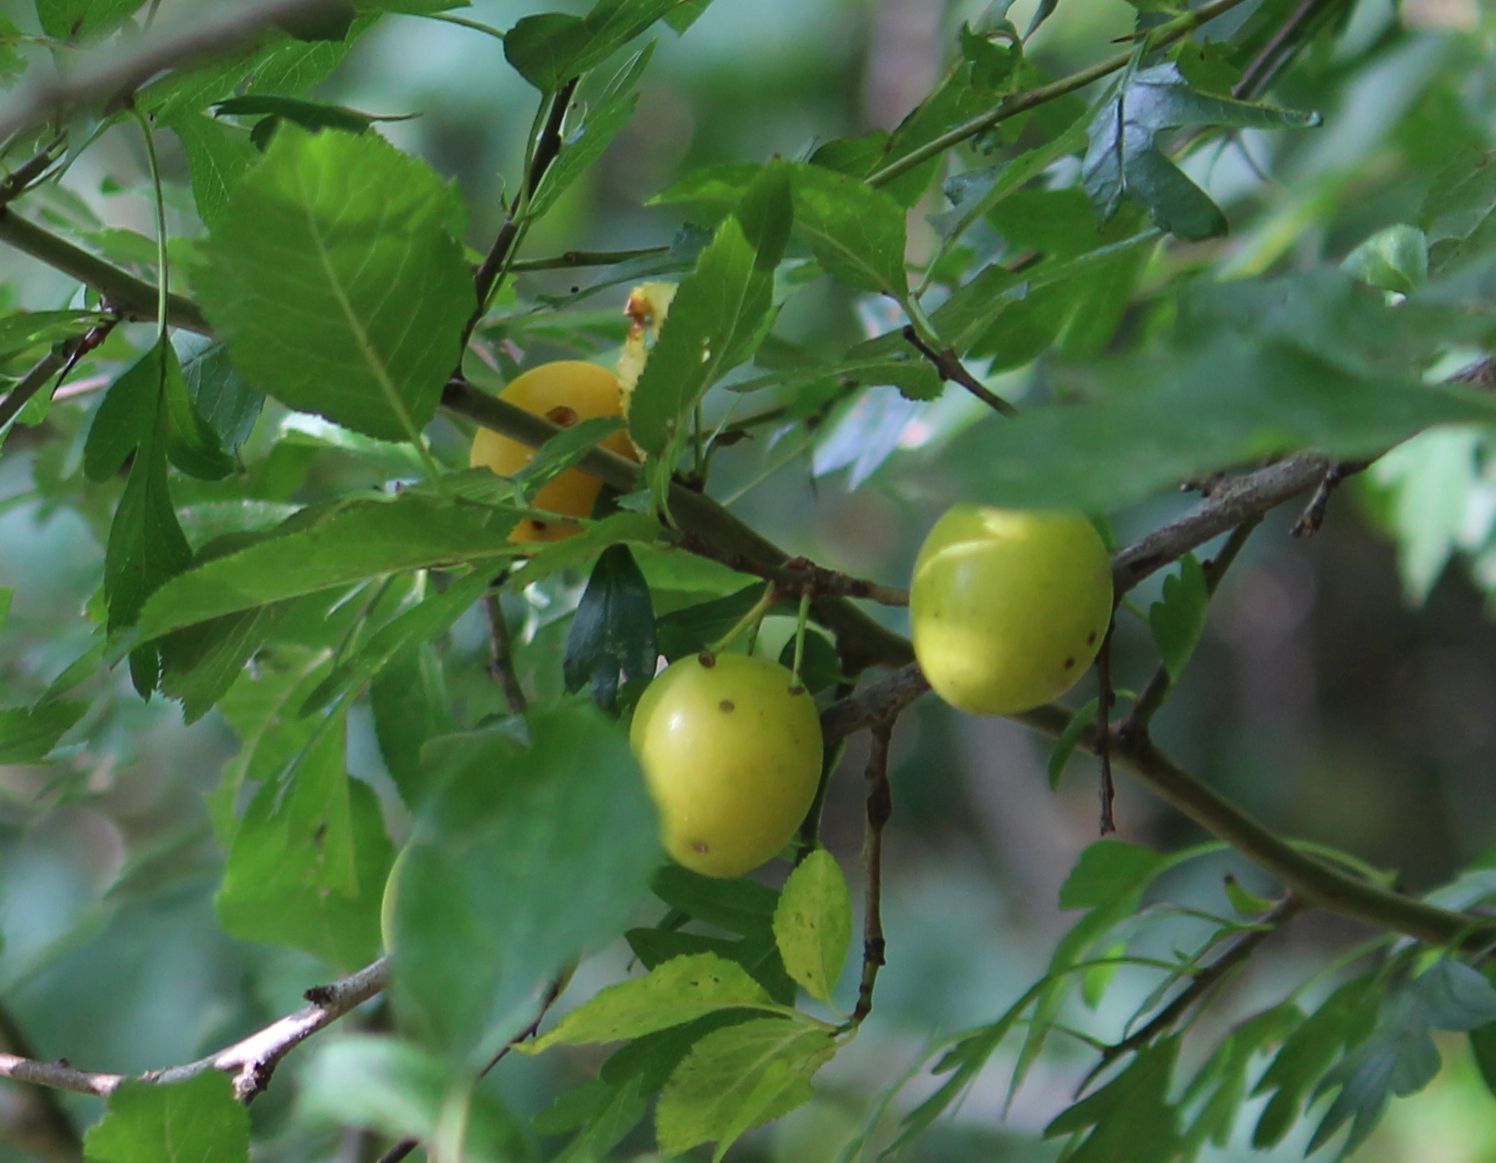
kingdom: Plantae
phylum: Tracheophyta
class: Magnoliopsida
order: Rosales
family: Rosaceae
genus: Prunus
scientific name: Prunus cerasifera
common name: Cherry plum
